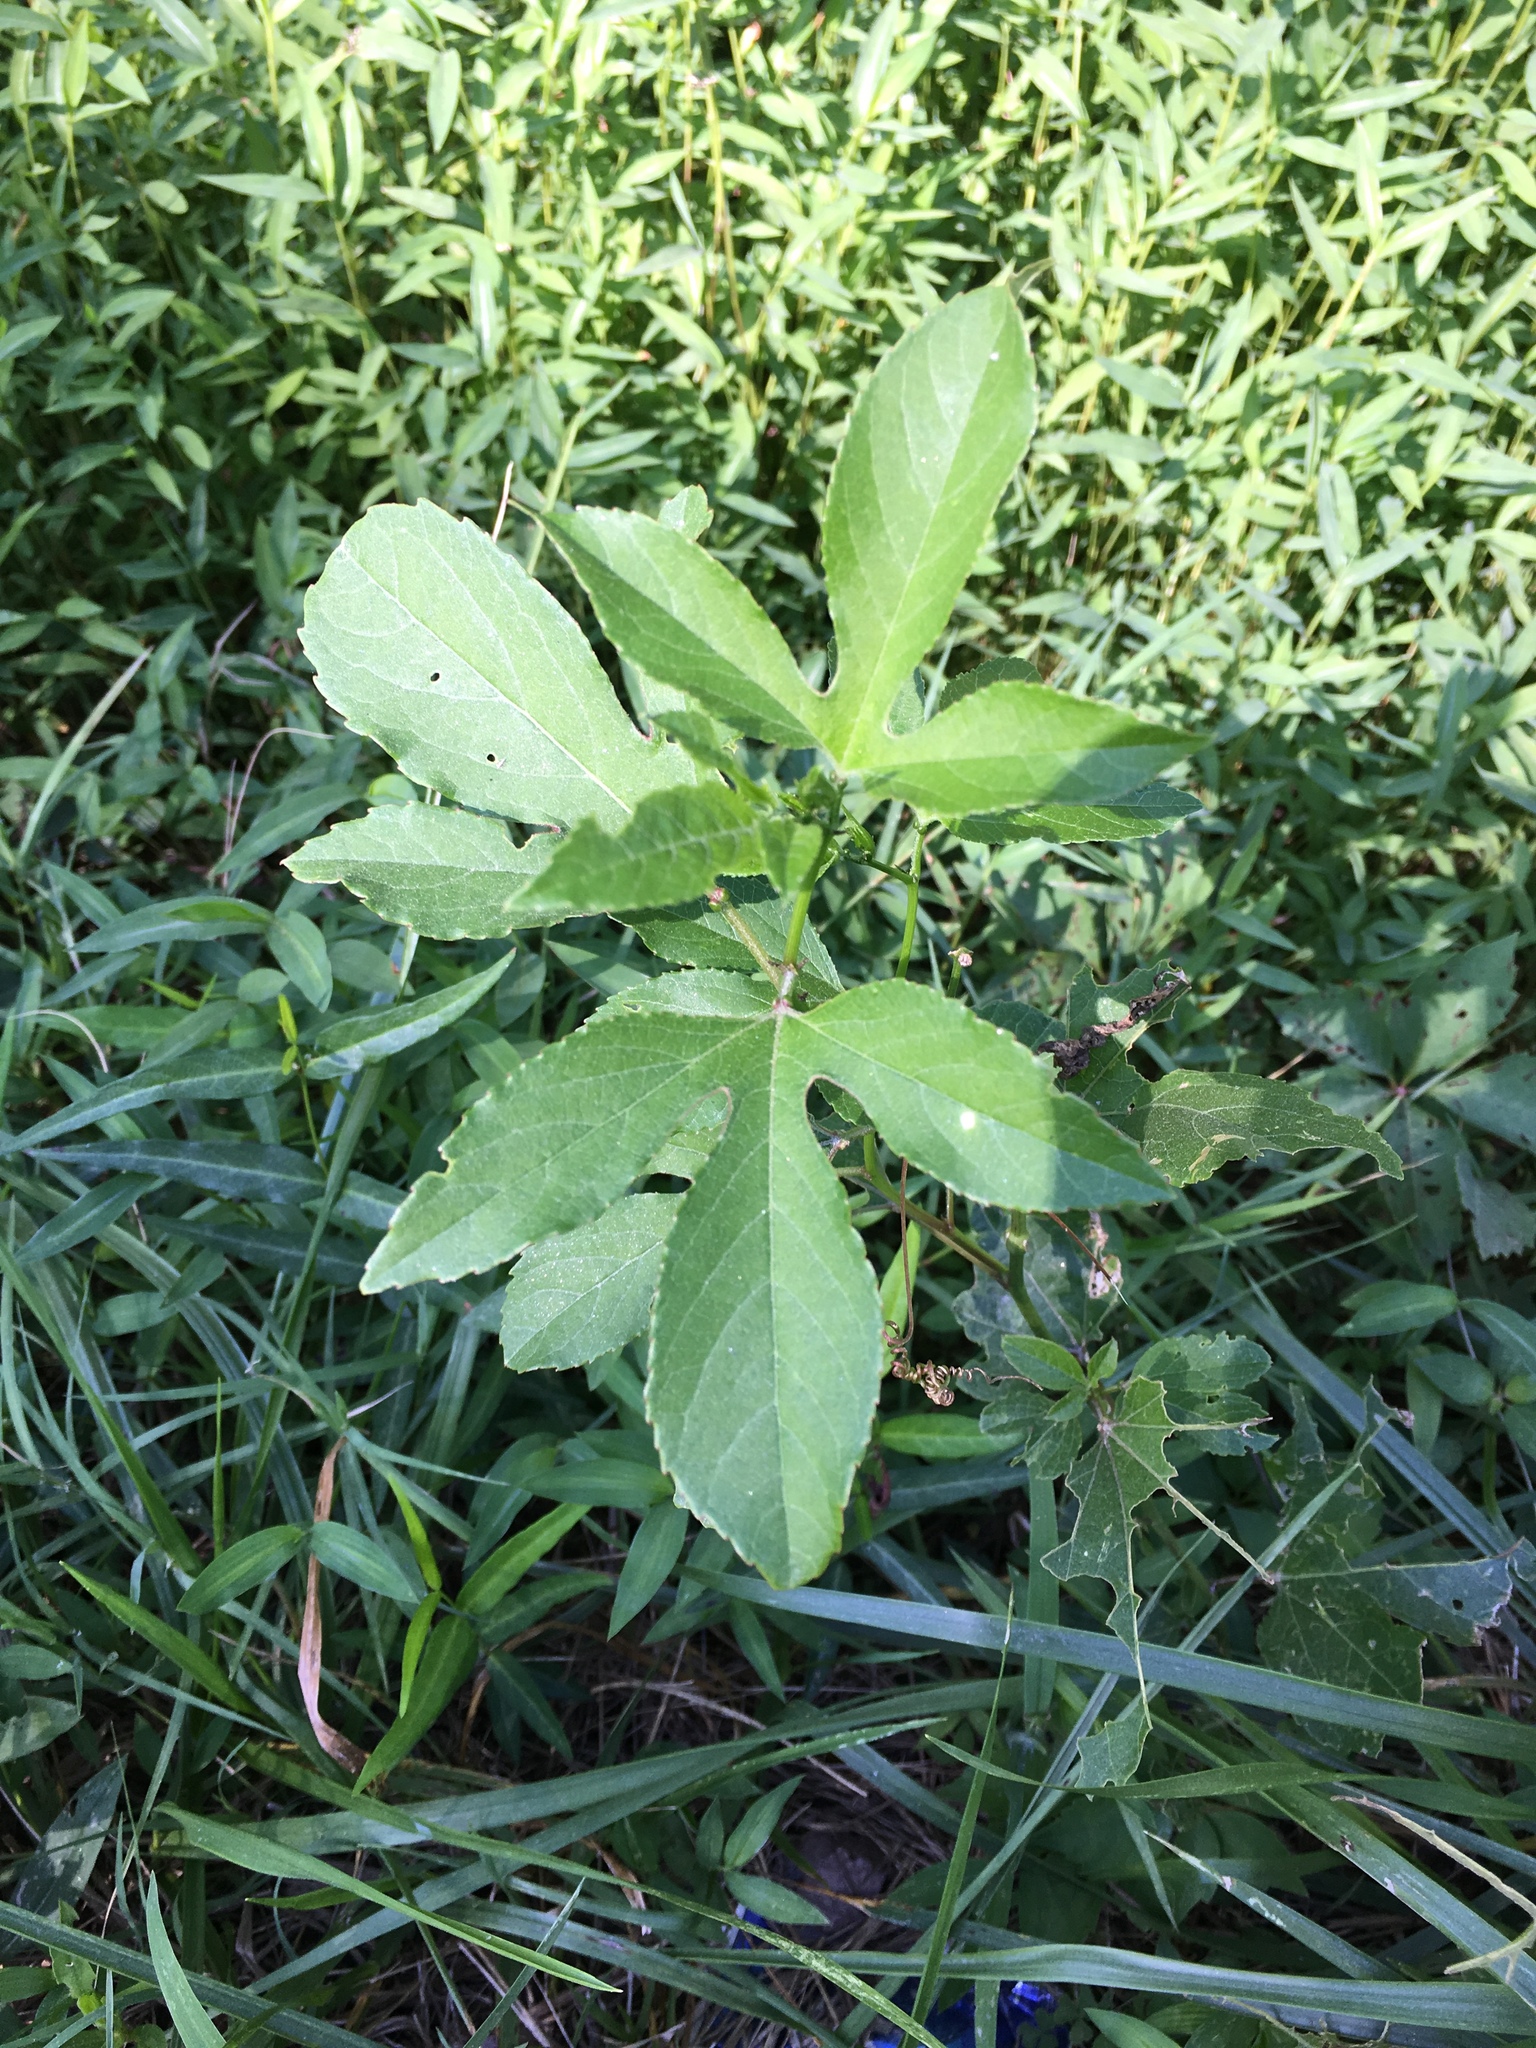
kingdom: Plantae
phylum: Tracheophyta
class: Magnoliopsida
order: Malpighiales
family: Passifloraceae
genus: Passiflora
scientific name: Passiflora incarnata
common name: Apricot-vine
